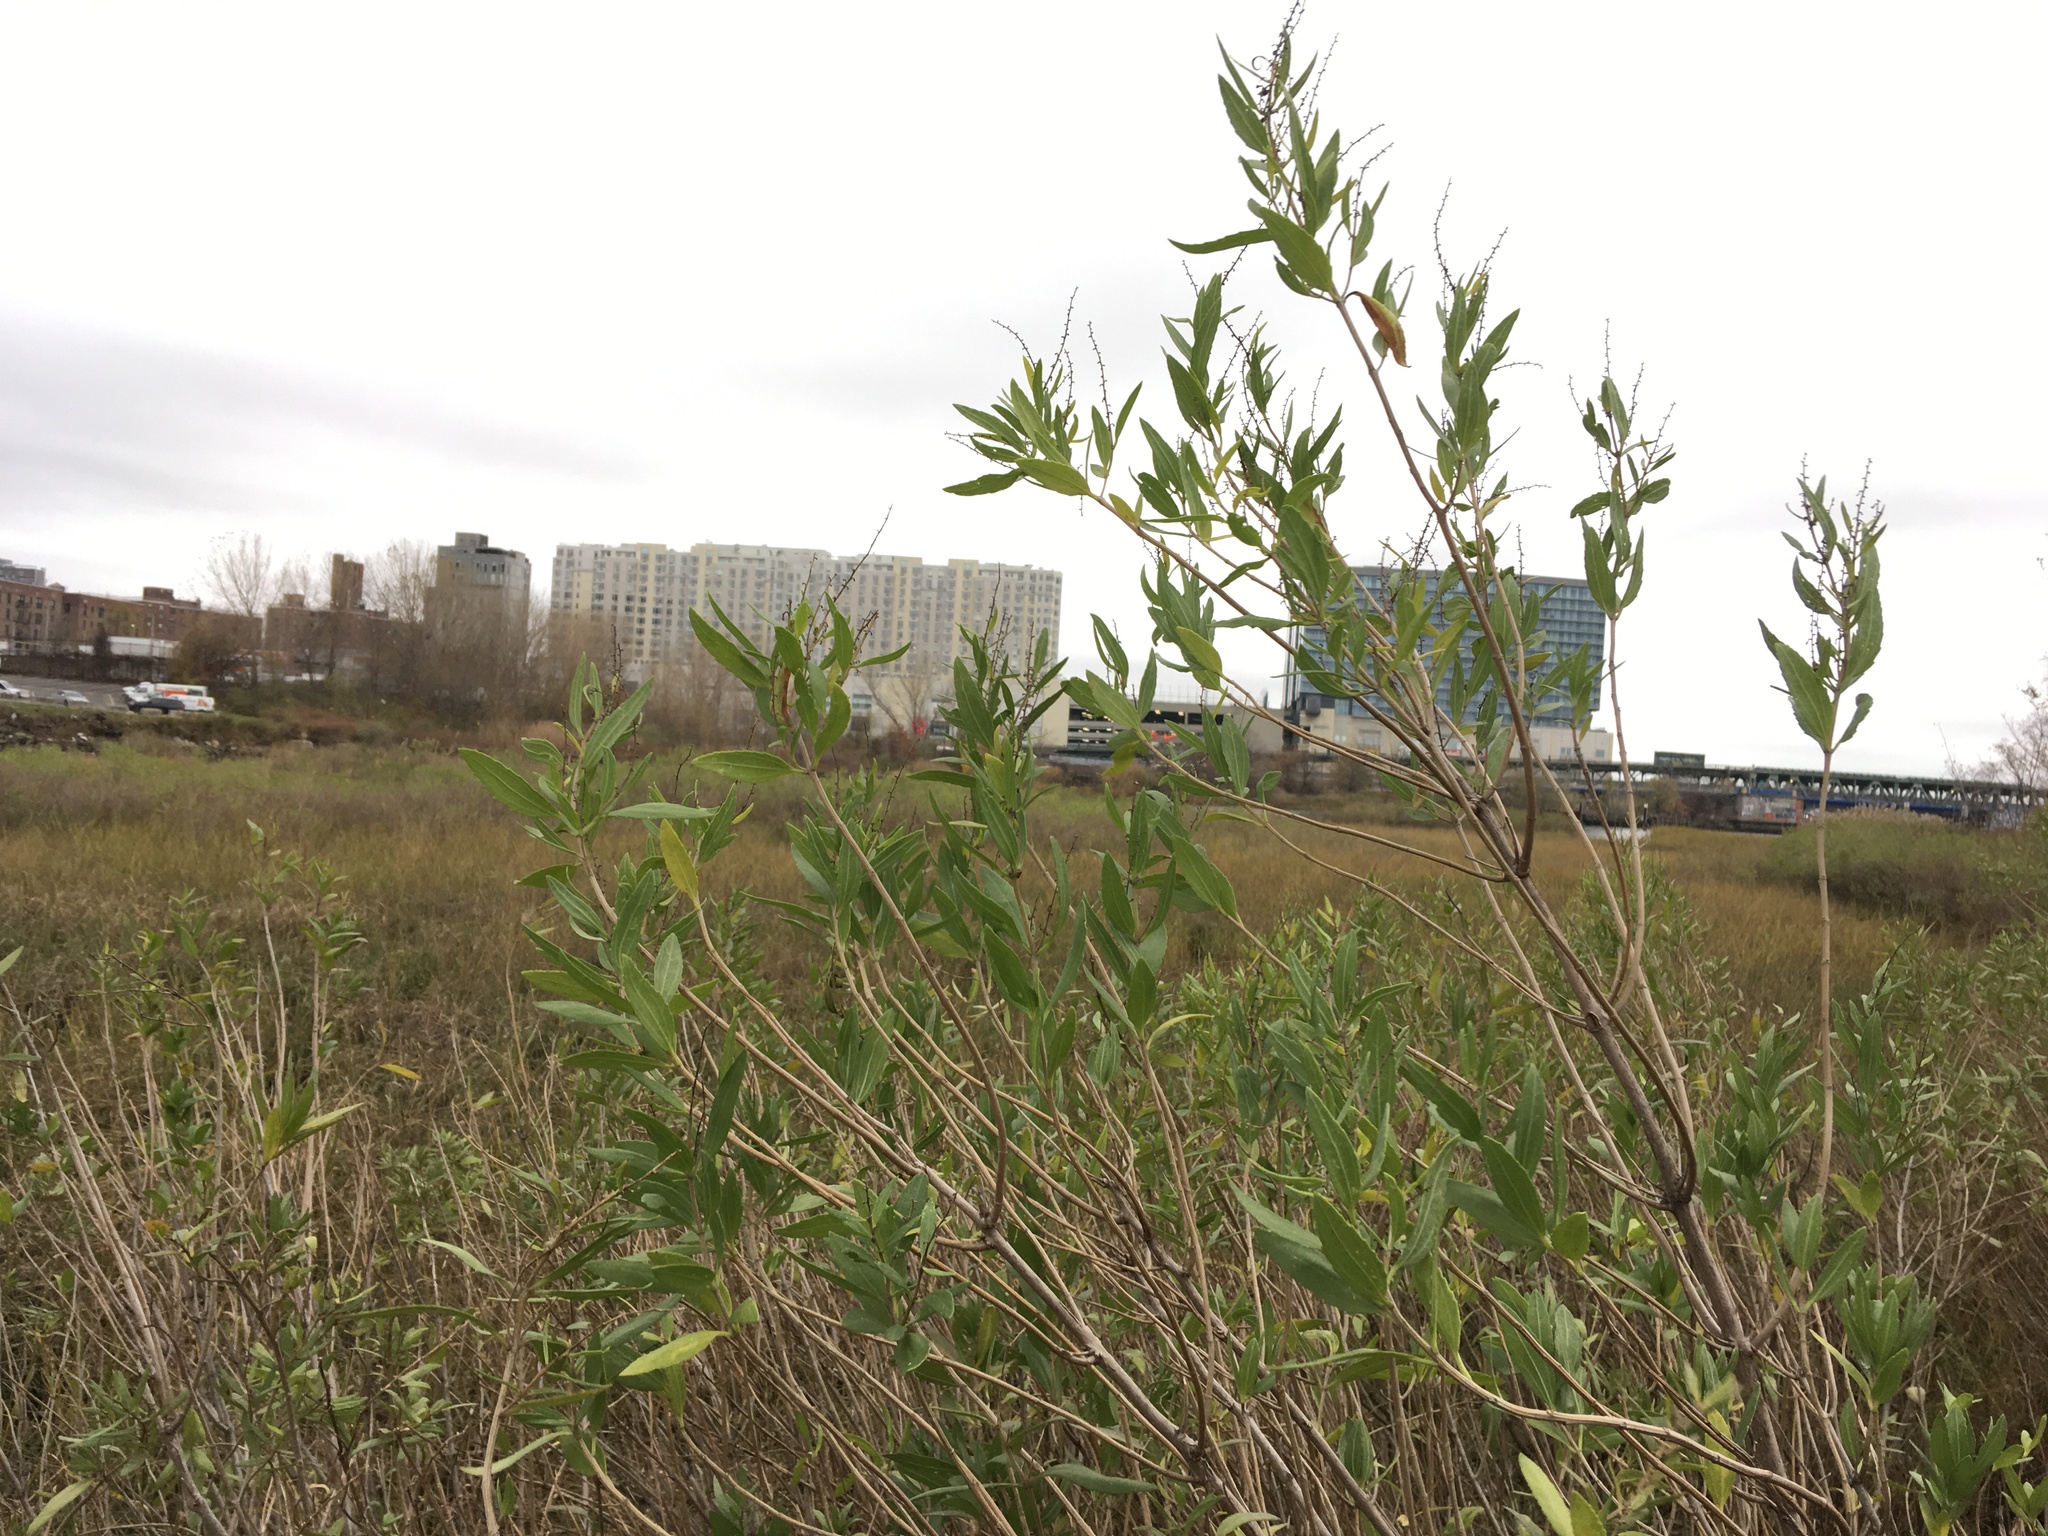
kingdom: Plantae
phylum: Tracheophyta
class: Magnoliopsida
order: Asterales
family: Asteraceae
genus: Iva
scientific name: Iva frutescens
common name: Big-leaved marsh-elder
